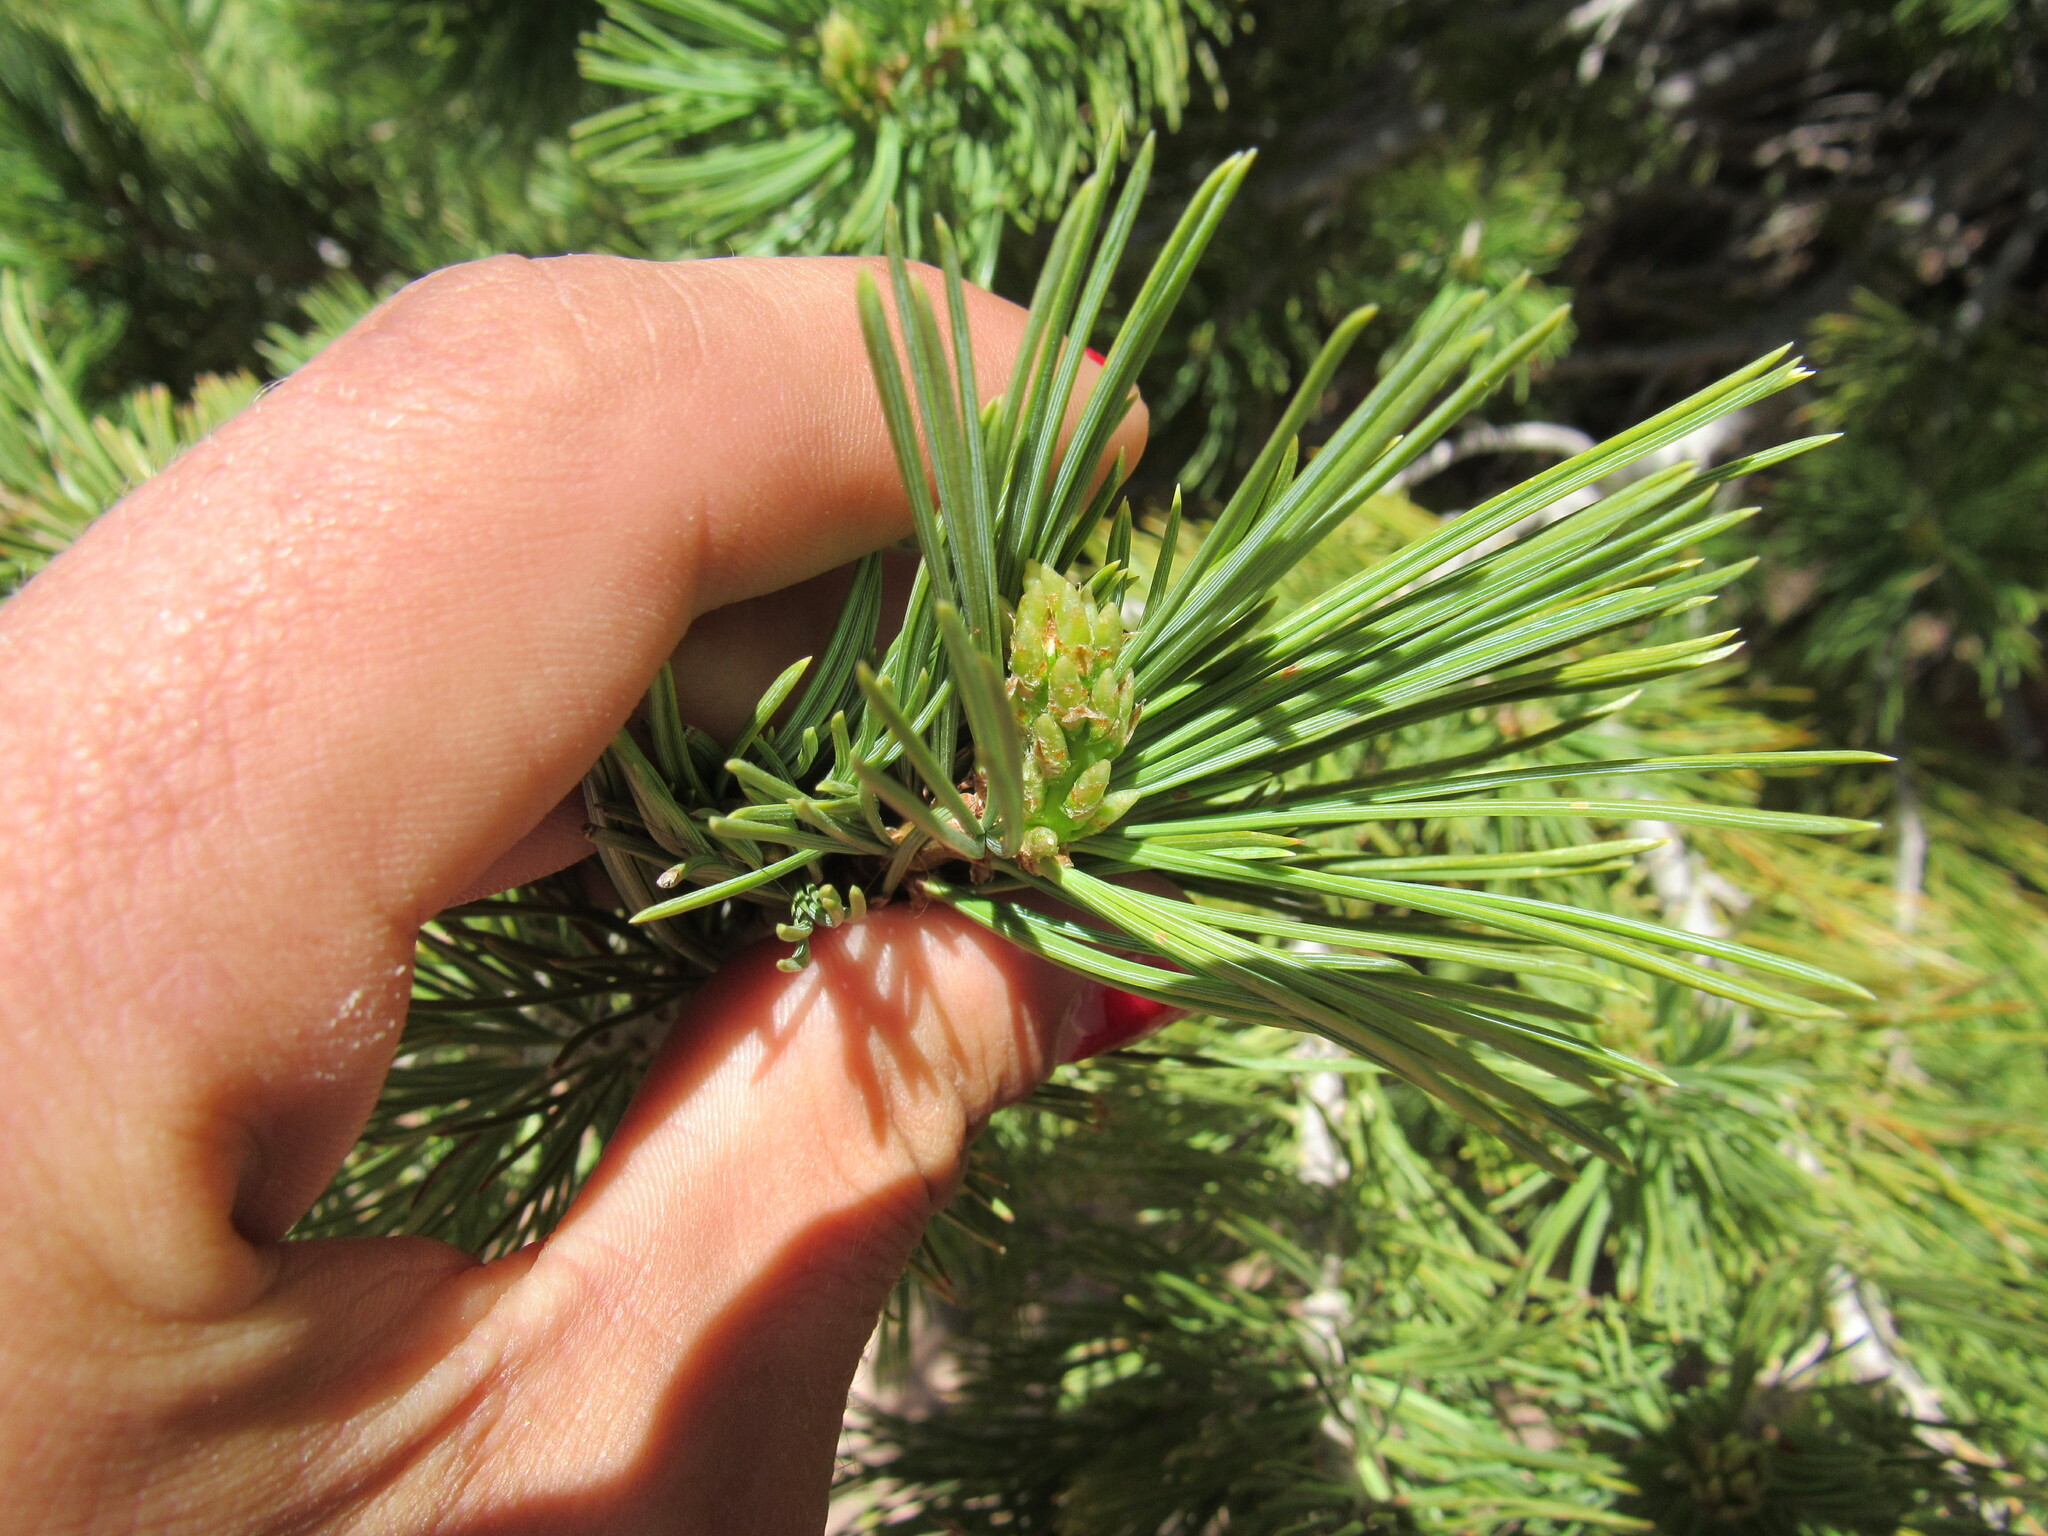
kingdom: Plantae
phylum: Tracheophyta
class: Pinopsida
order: Pinales
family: Pinaceae
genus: Pinus
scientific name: Pinus flexilis
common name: Limber pine
